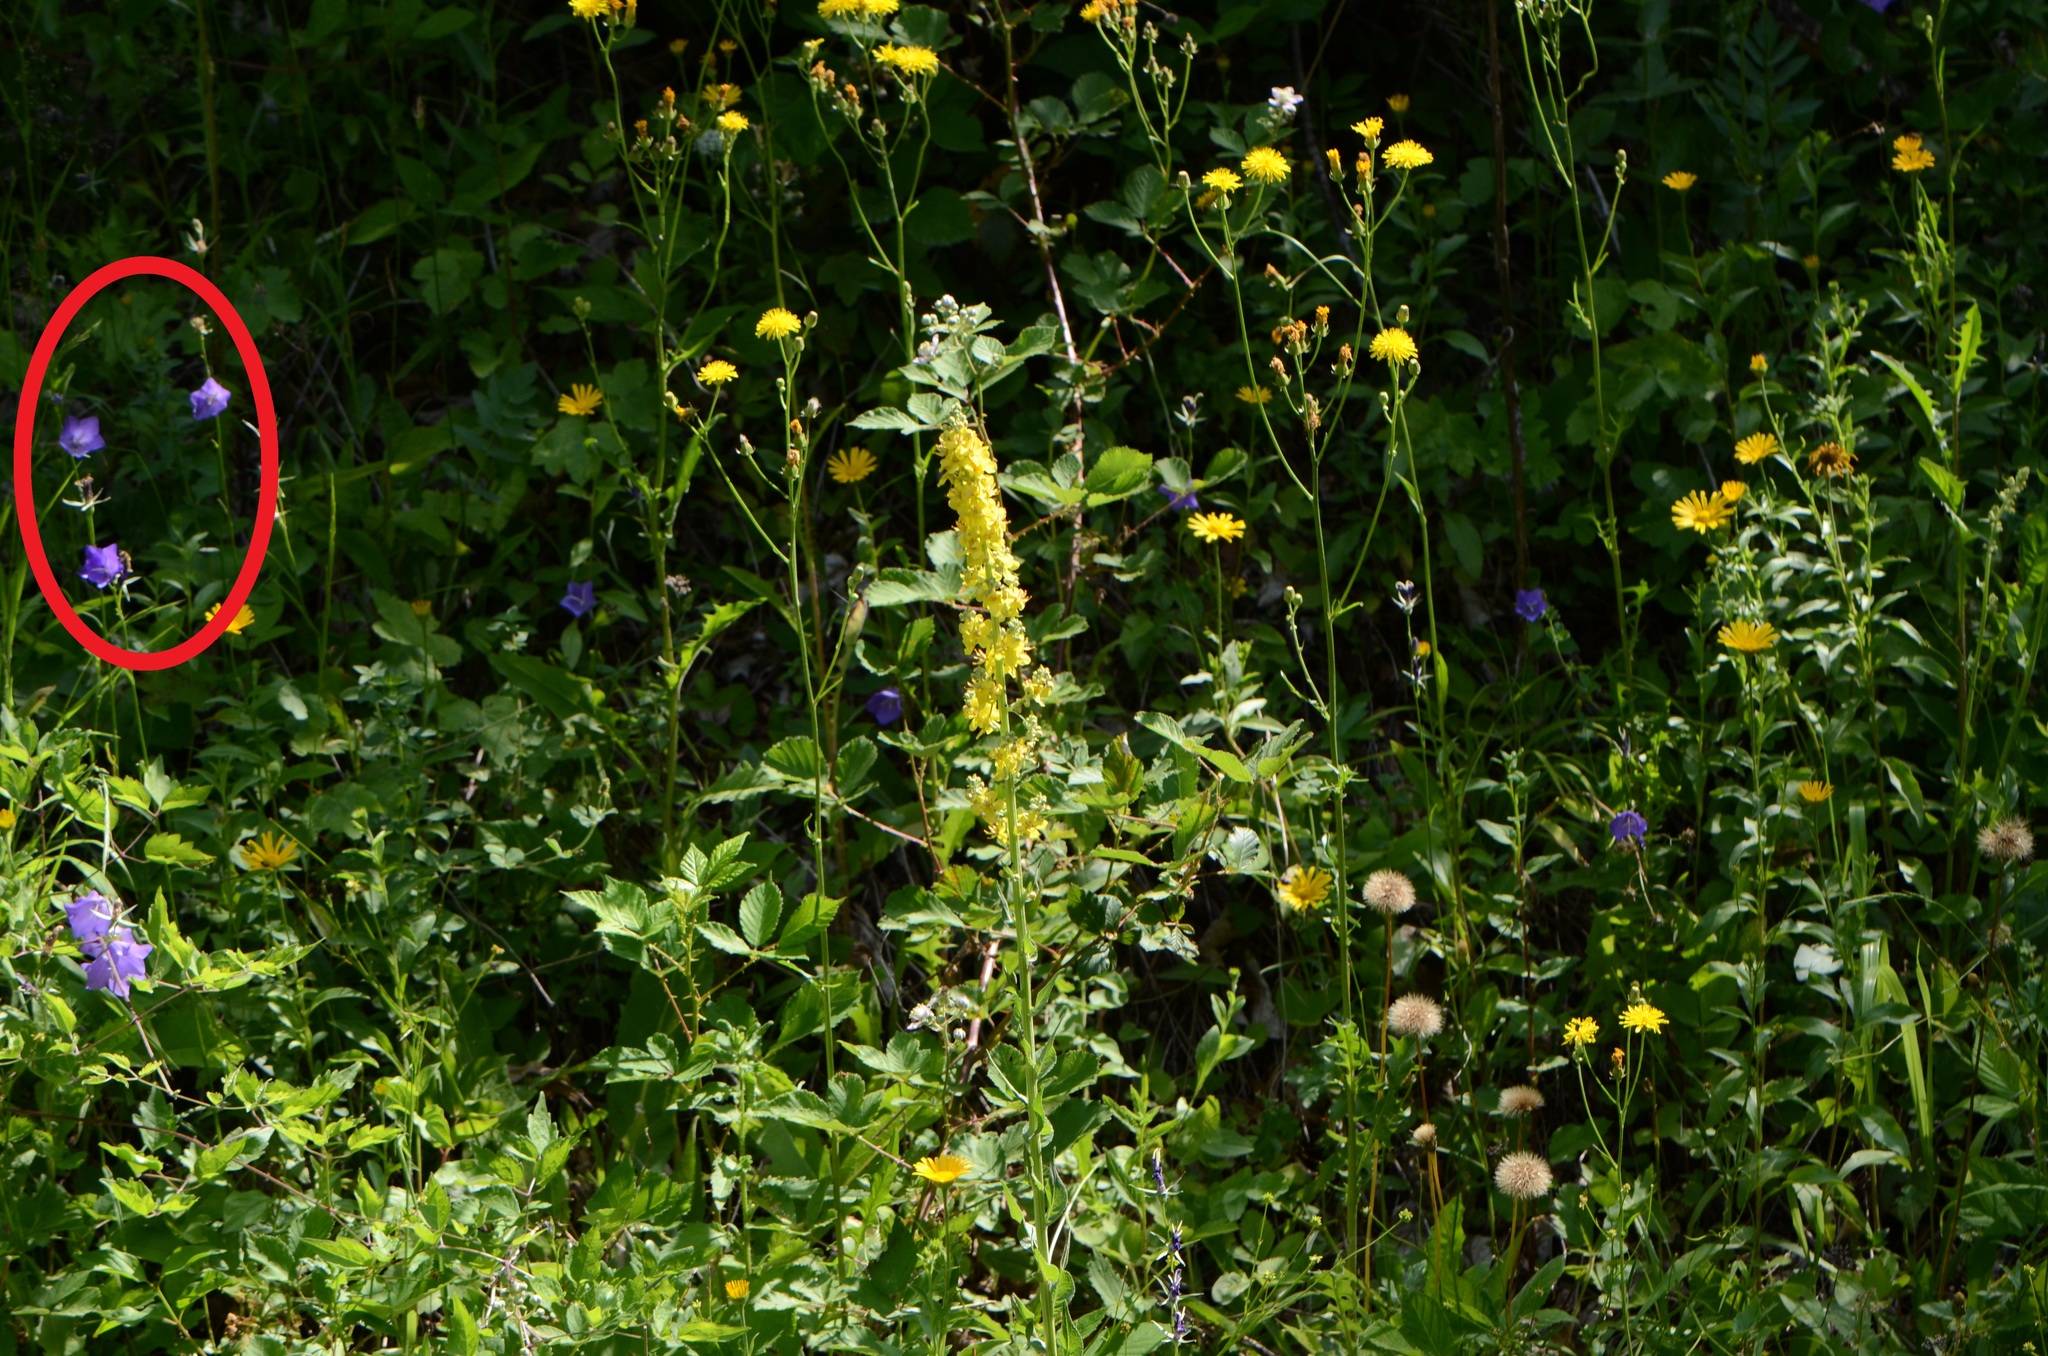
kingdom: Plantae
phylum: Tracheophyta
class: Magnoliopsida
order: Asterales
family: Campanulaceae
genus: Campanula
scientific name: Campanula persicifolia
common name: Peach-leaved bellflower
